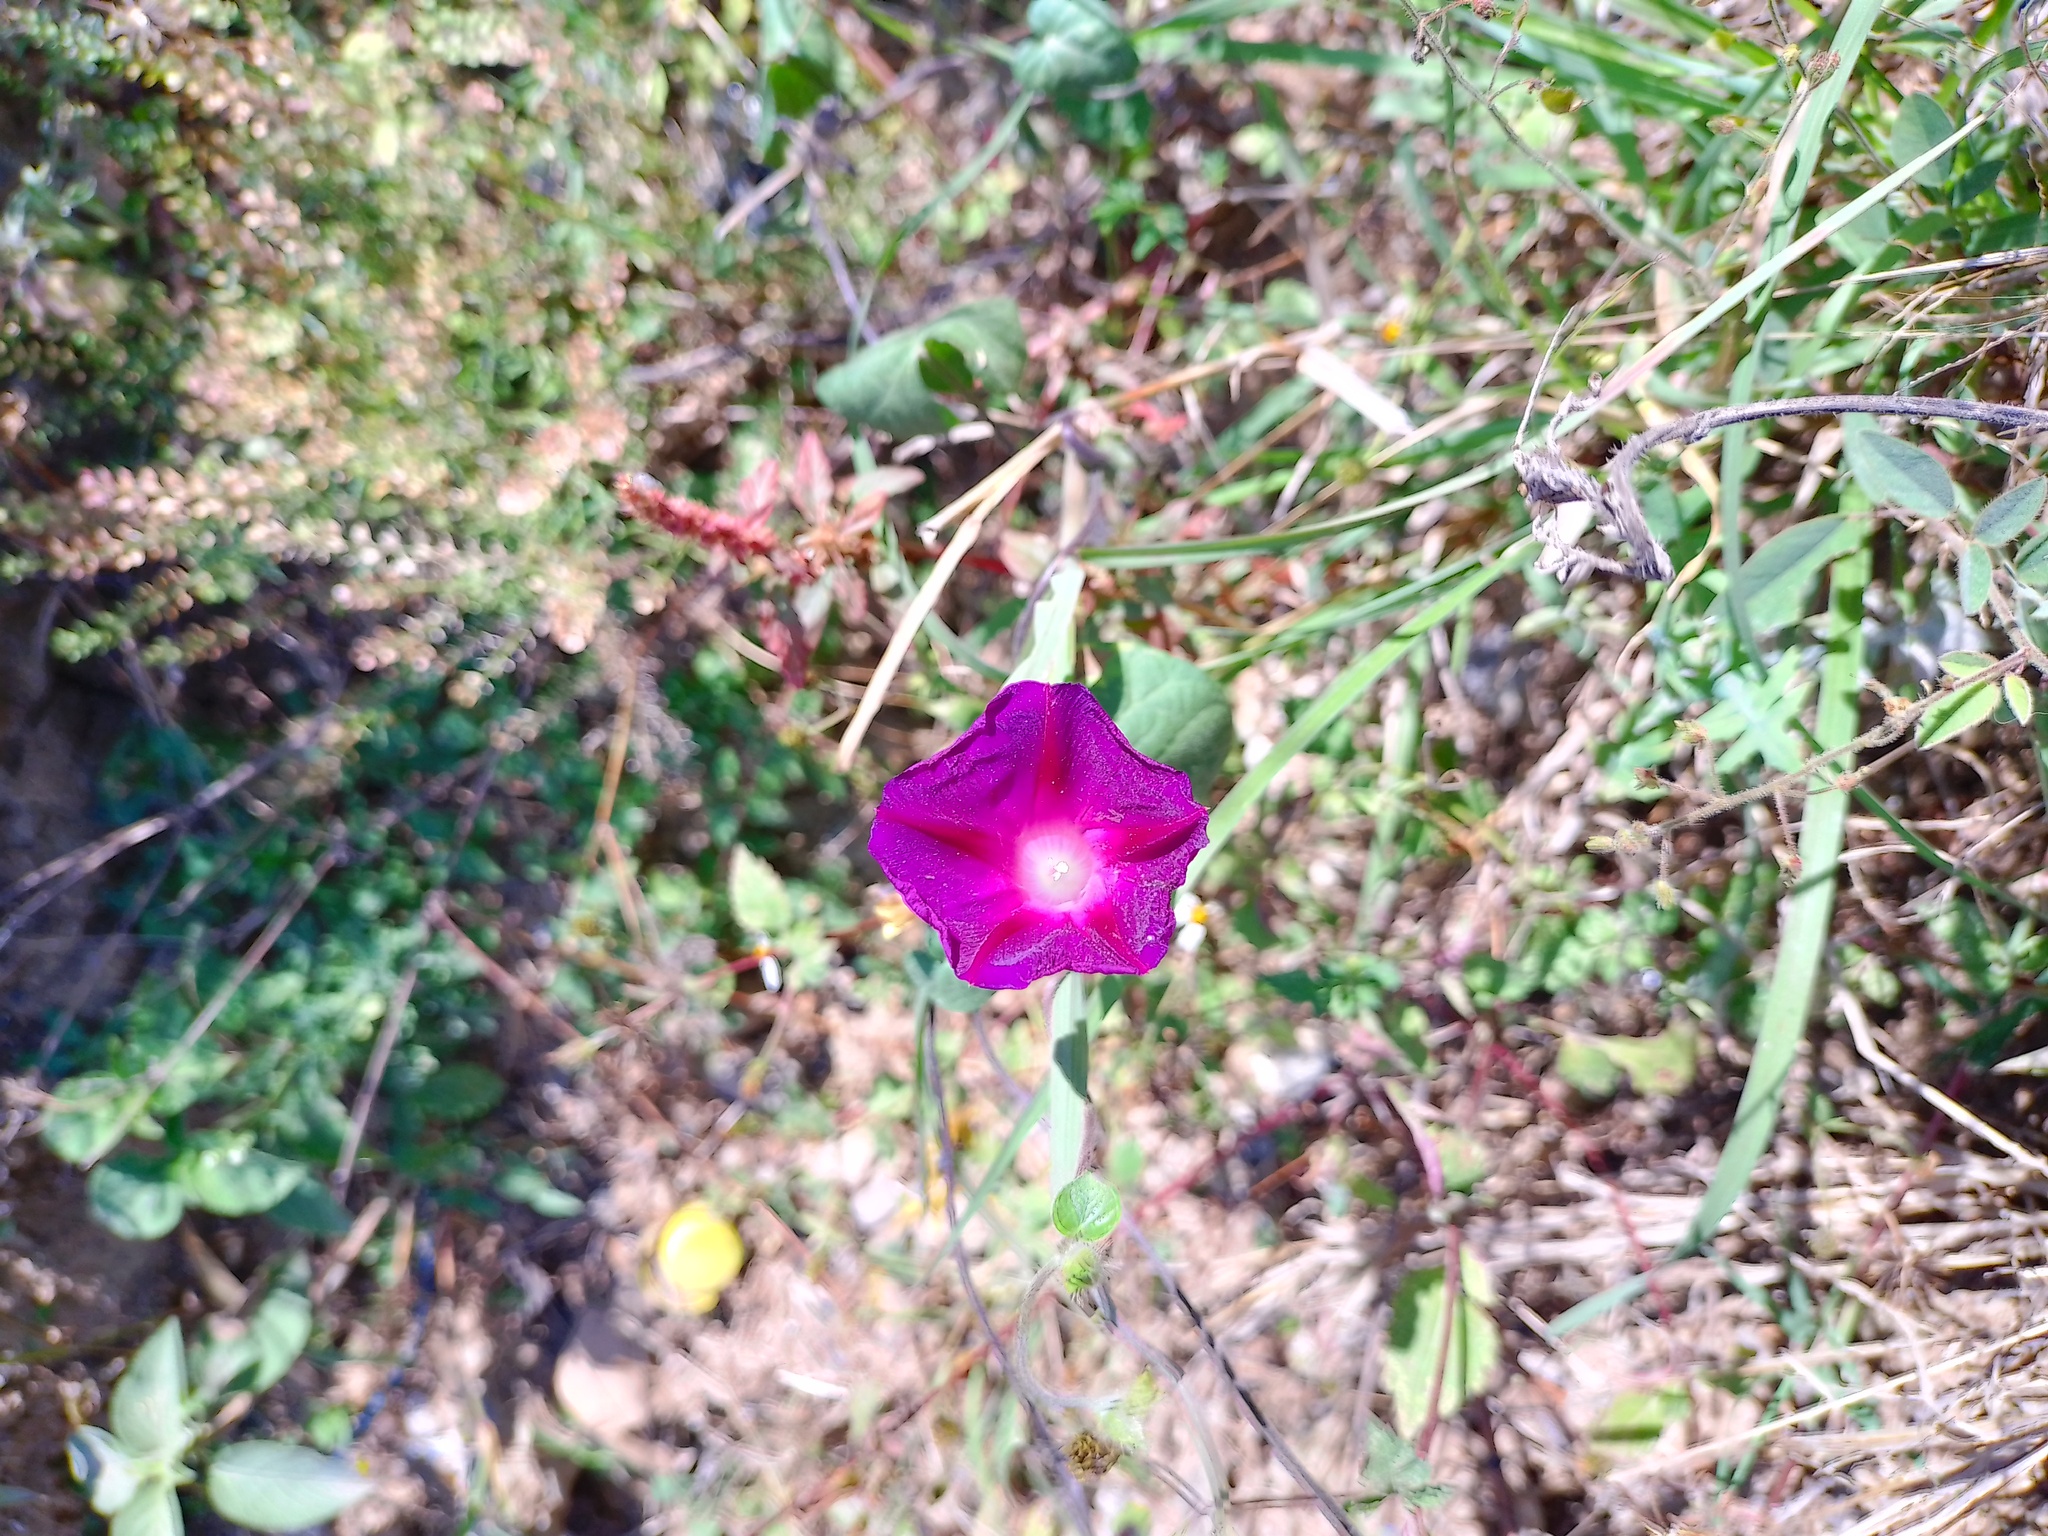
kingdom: Plantae
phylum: Tracheophyta
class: Magnoliopsida
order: Solanales
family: Convolvulaceae
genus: Ipomoea
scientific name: Ipomoea purpurea
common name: Common morning-glory
